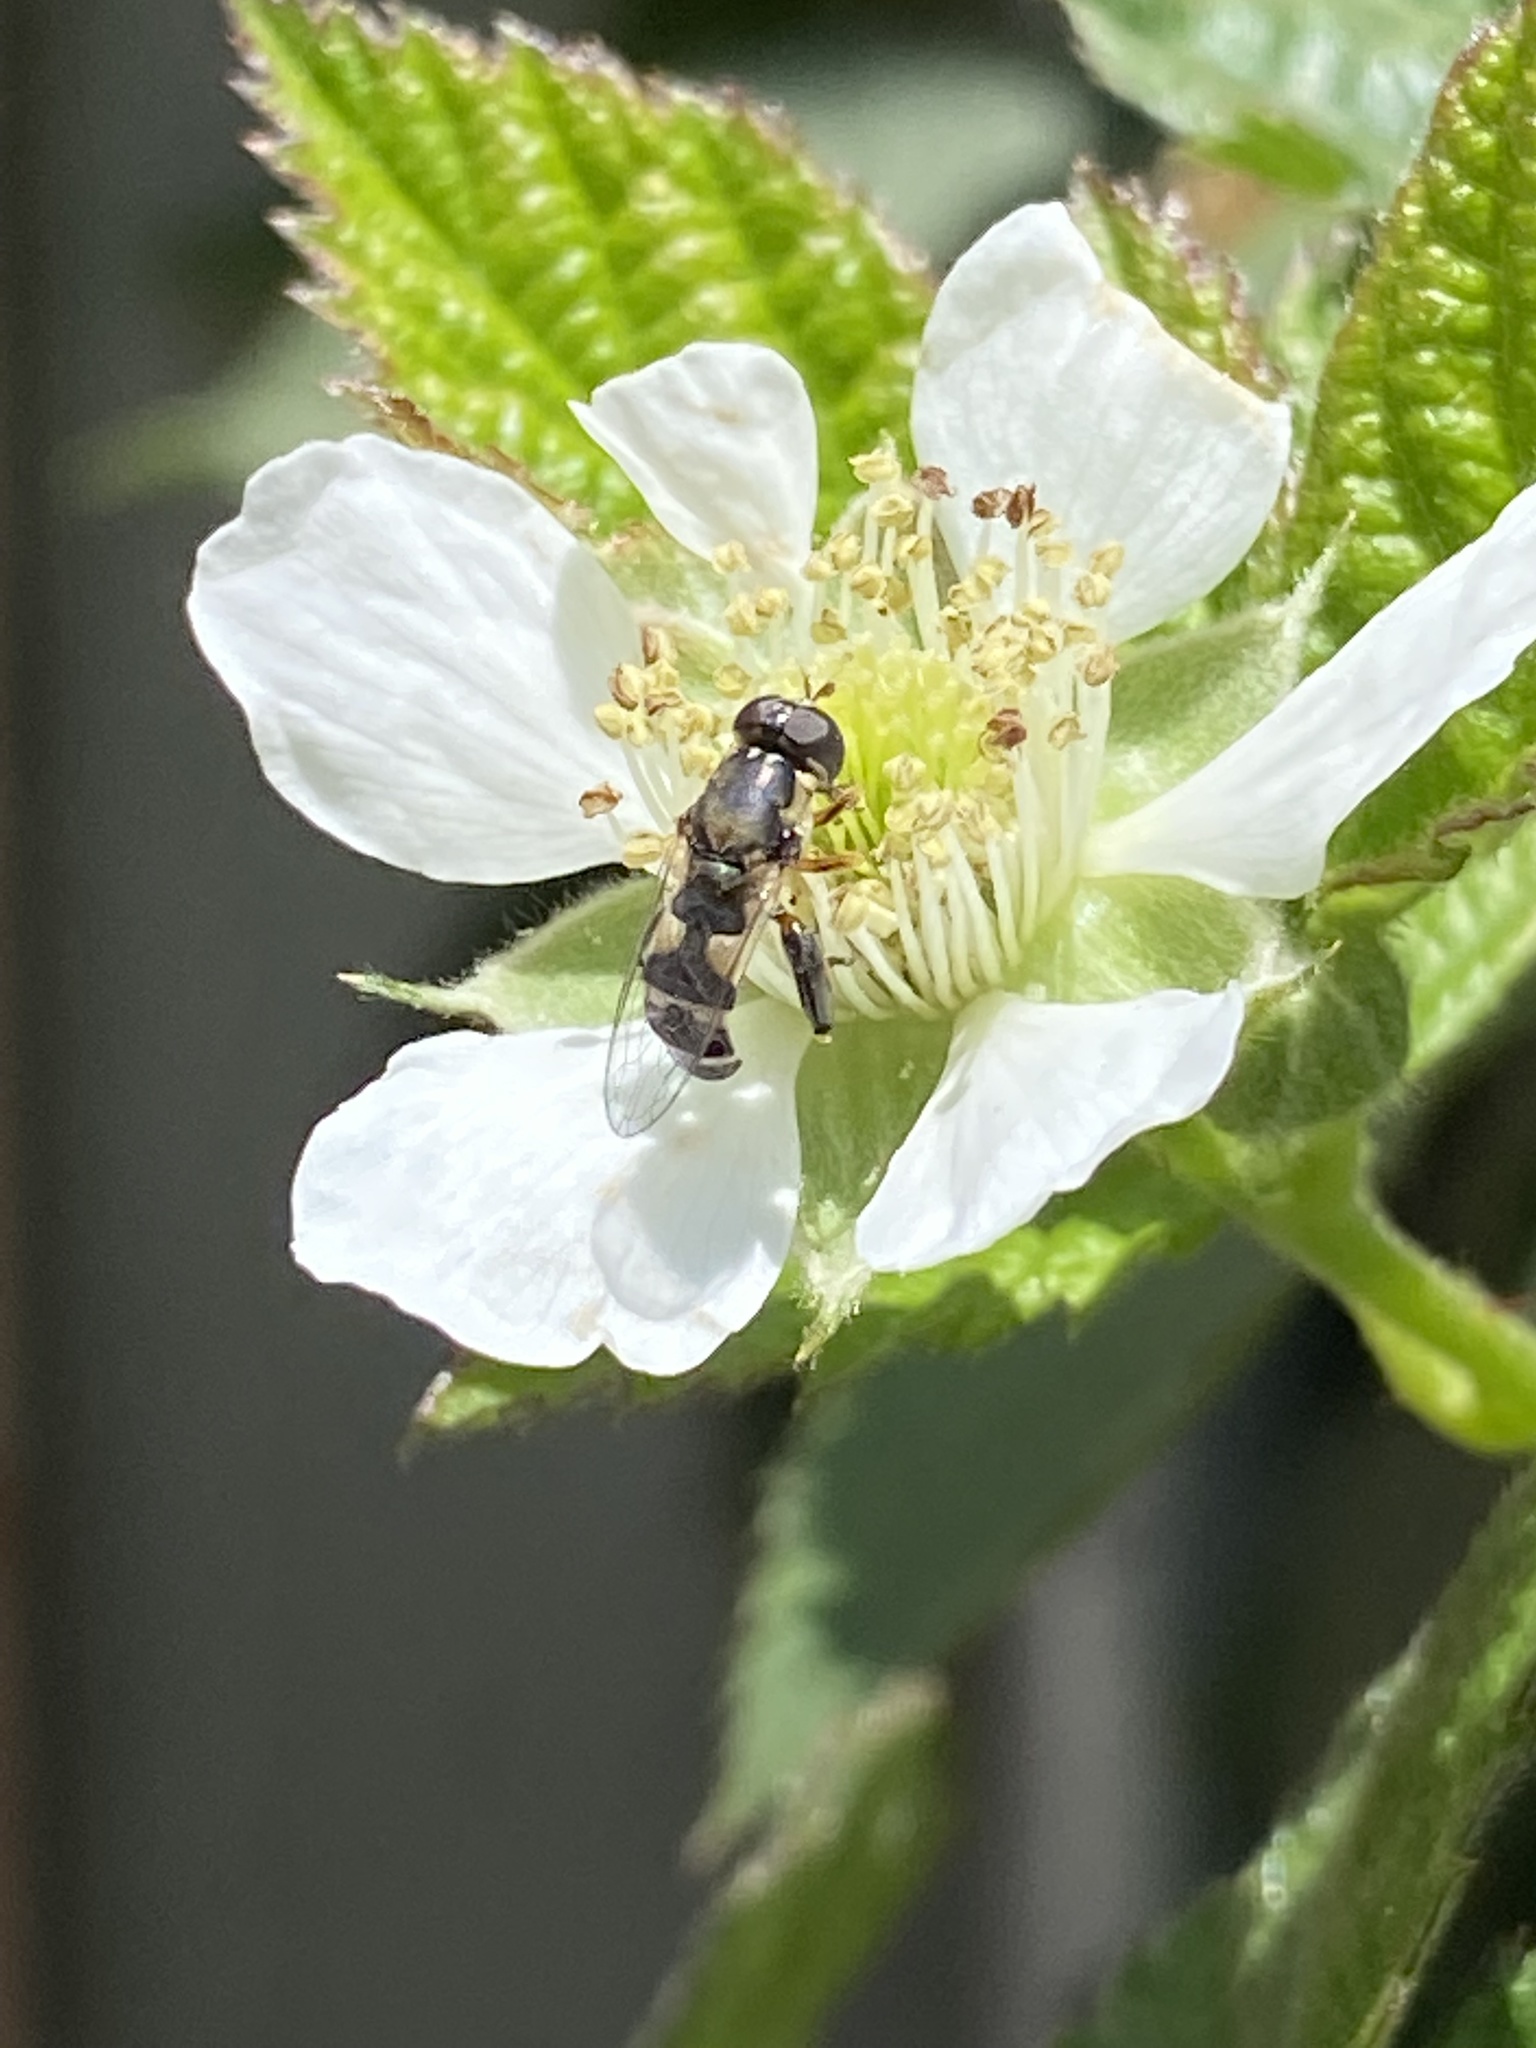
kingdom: Animalia
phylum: Arthropoda
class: Insecta
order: Diptera
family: Syrphidae
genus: Syritta
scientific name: Syritta pipiens
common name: Hover fly
